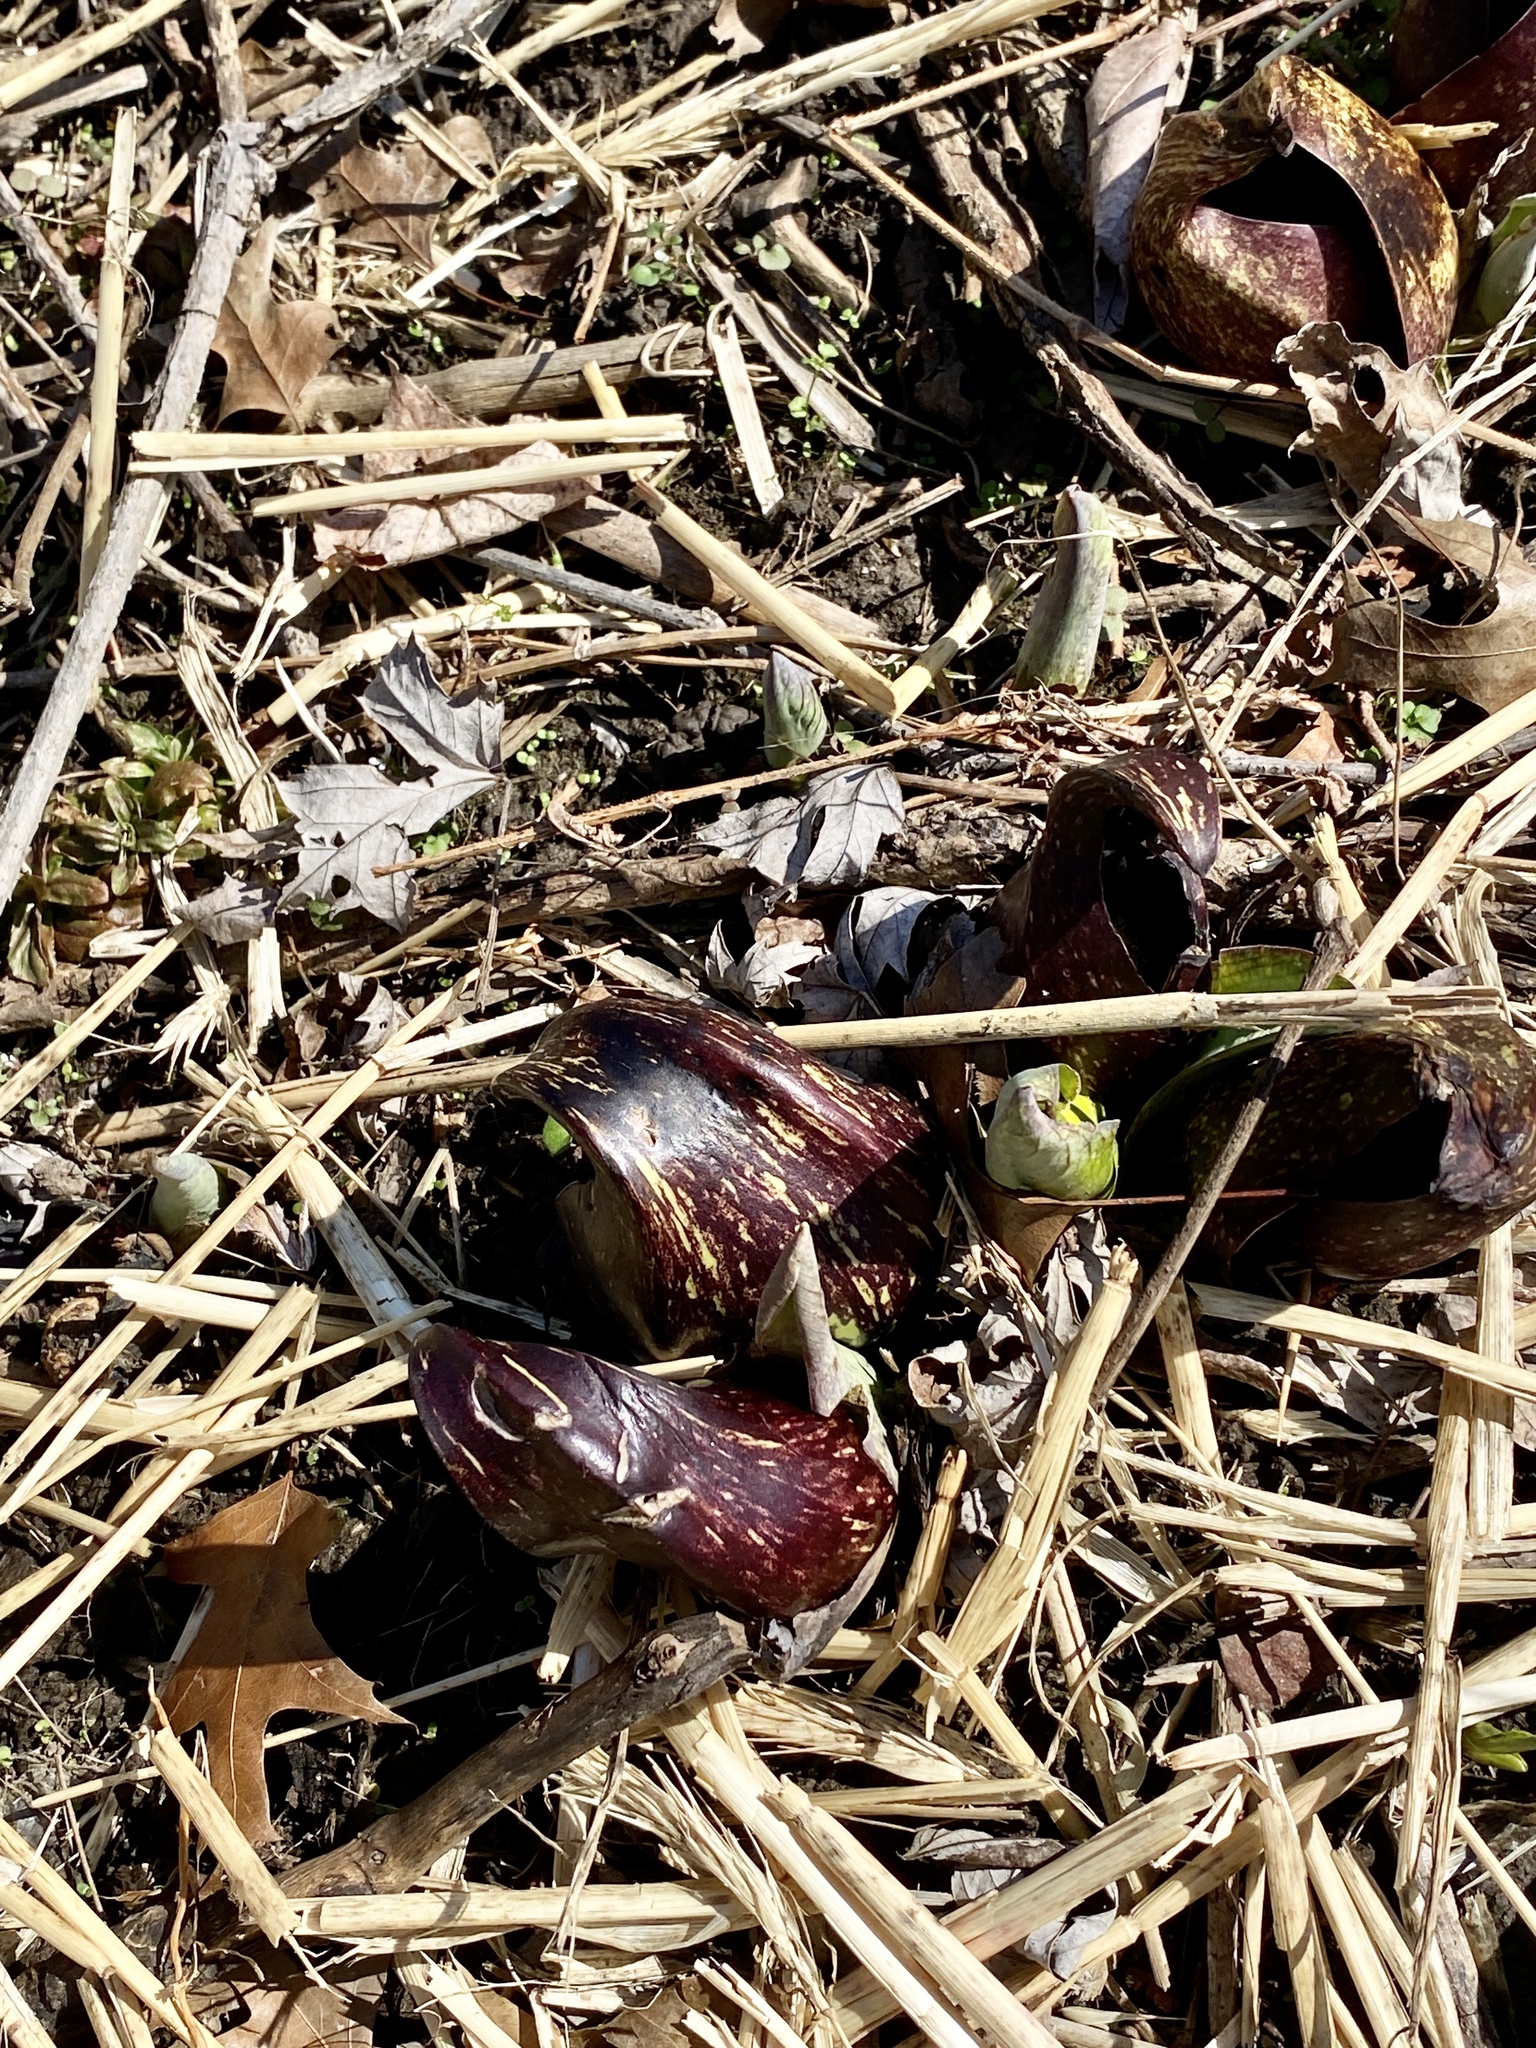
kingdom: Plantae
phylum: Tracheophyta
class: Liliopsida
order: Alismatales
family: Araceae
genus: Symplocarpus
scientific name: Symplocarpus foetidus
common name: Eastern skunk cabbage
